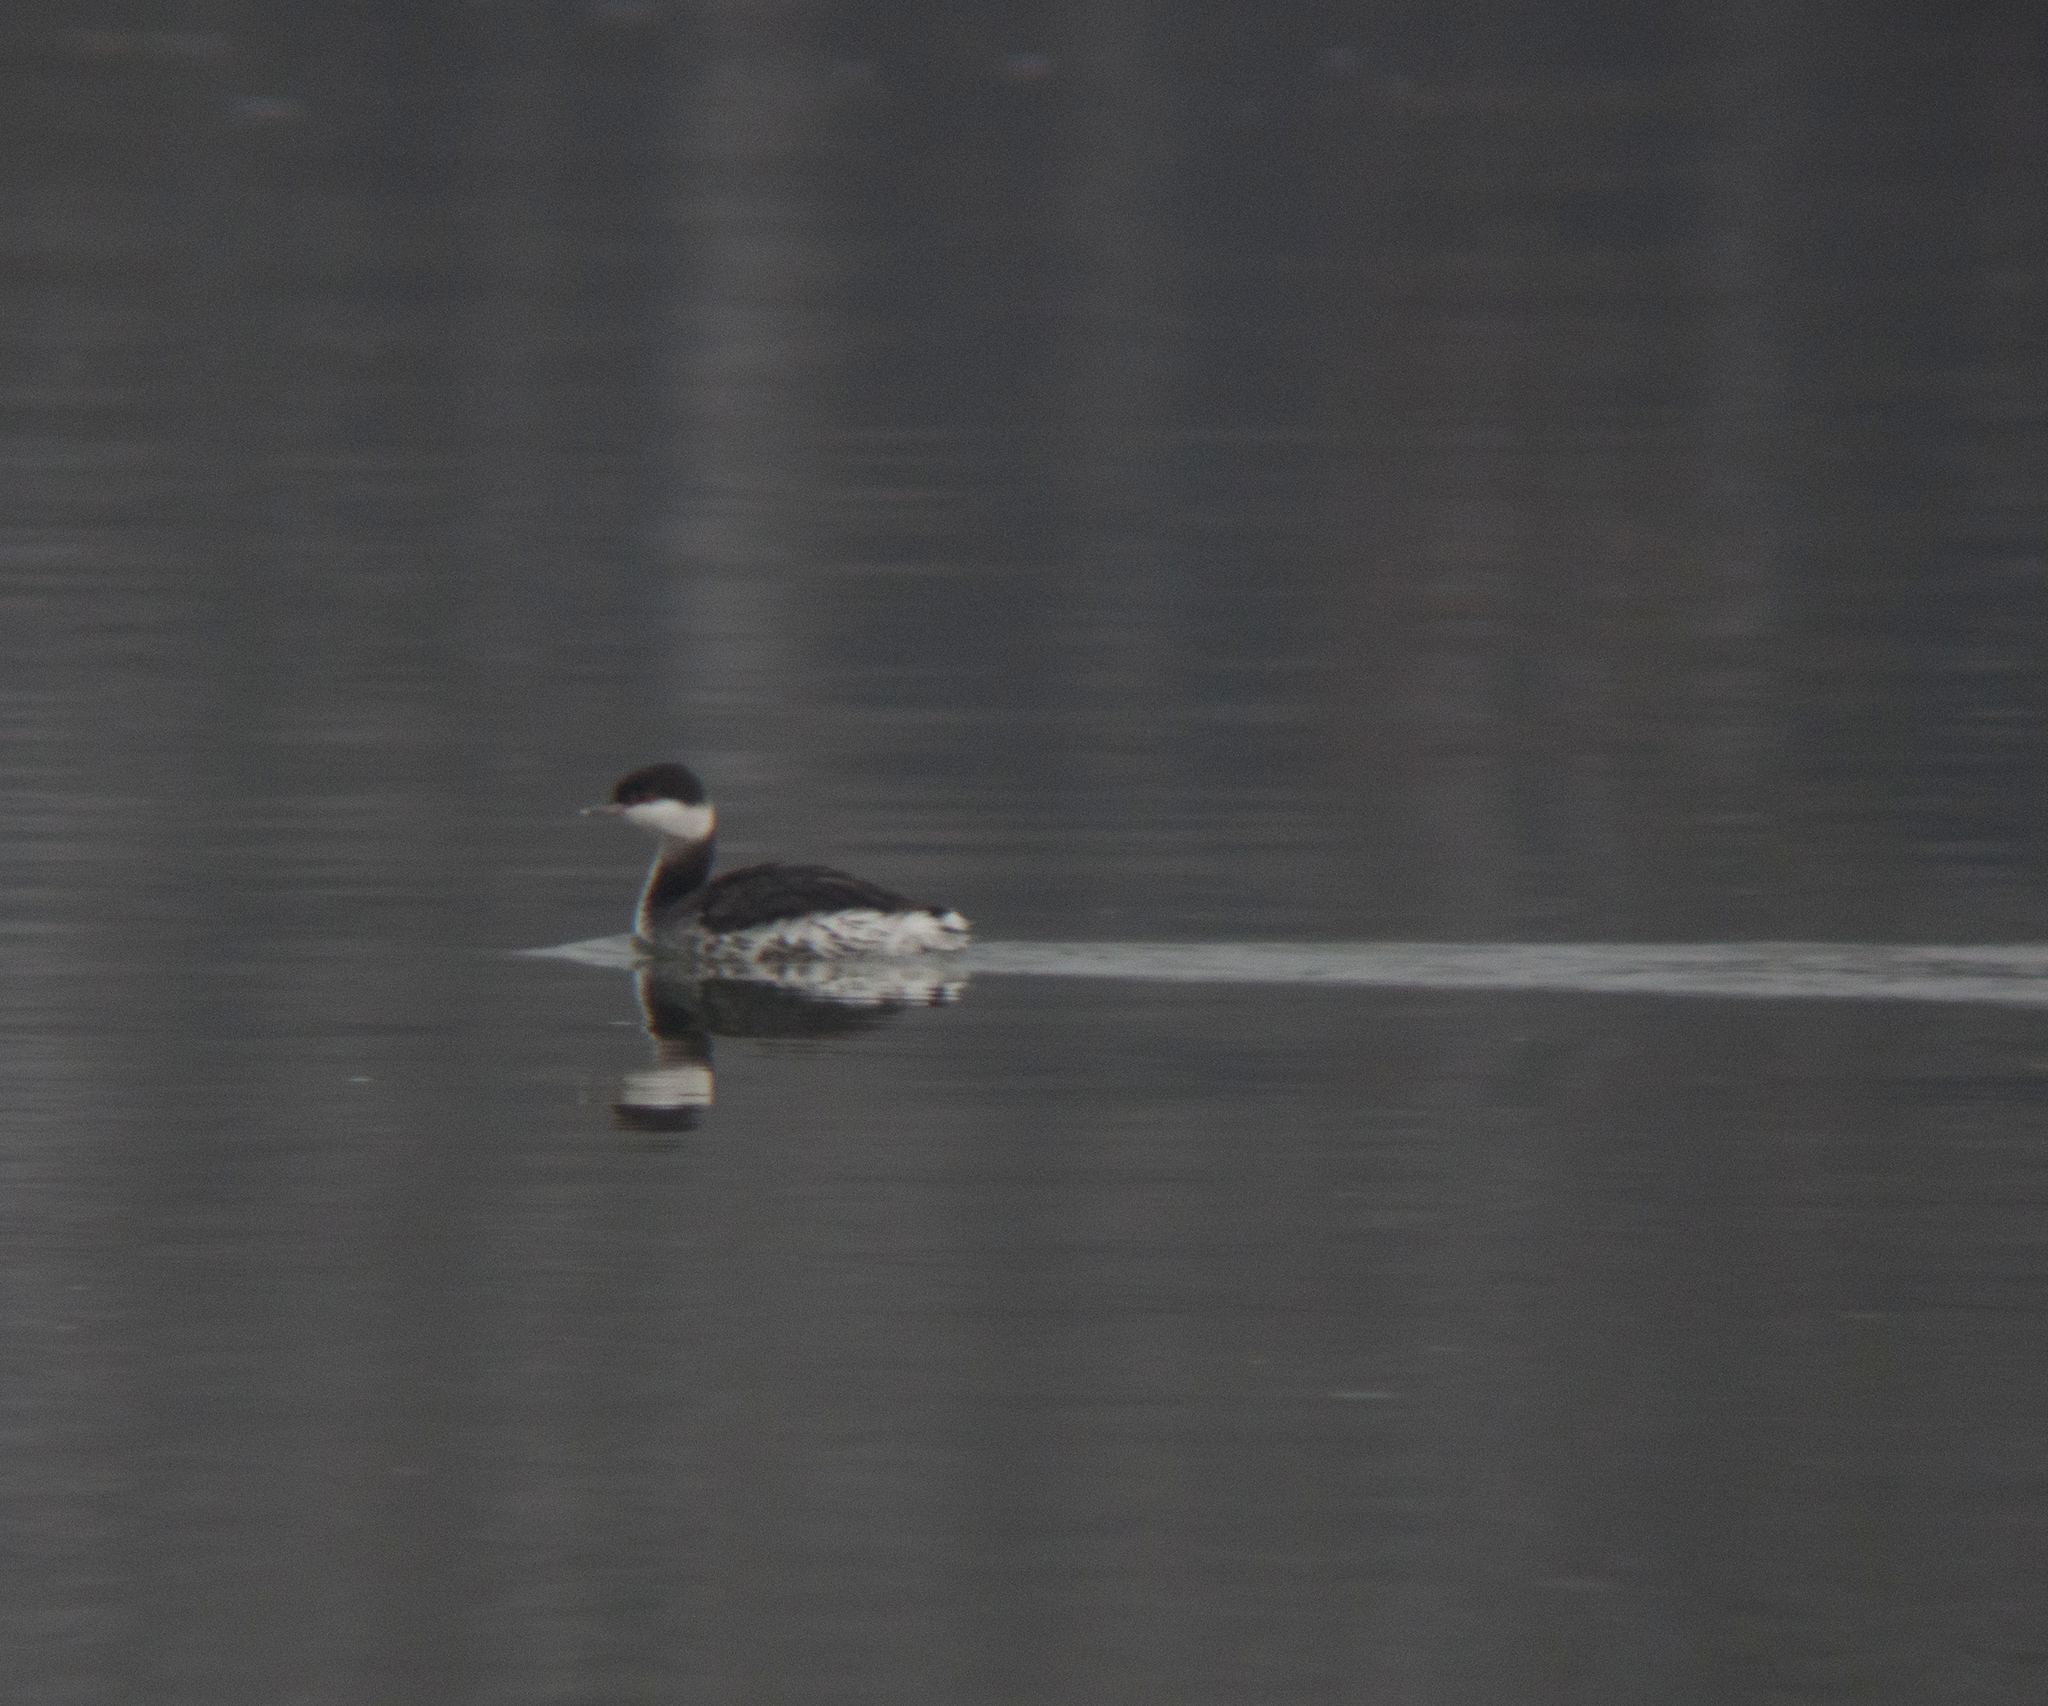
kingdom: Animalia
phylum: Chordata
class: Aves
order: Podicipediformes
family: Podicipedidae
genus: Podiceps
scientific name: Podiceps auritus
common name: Horned grebe
